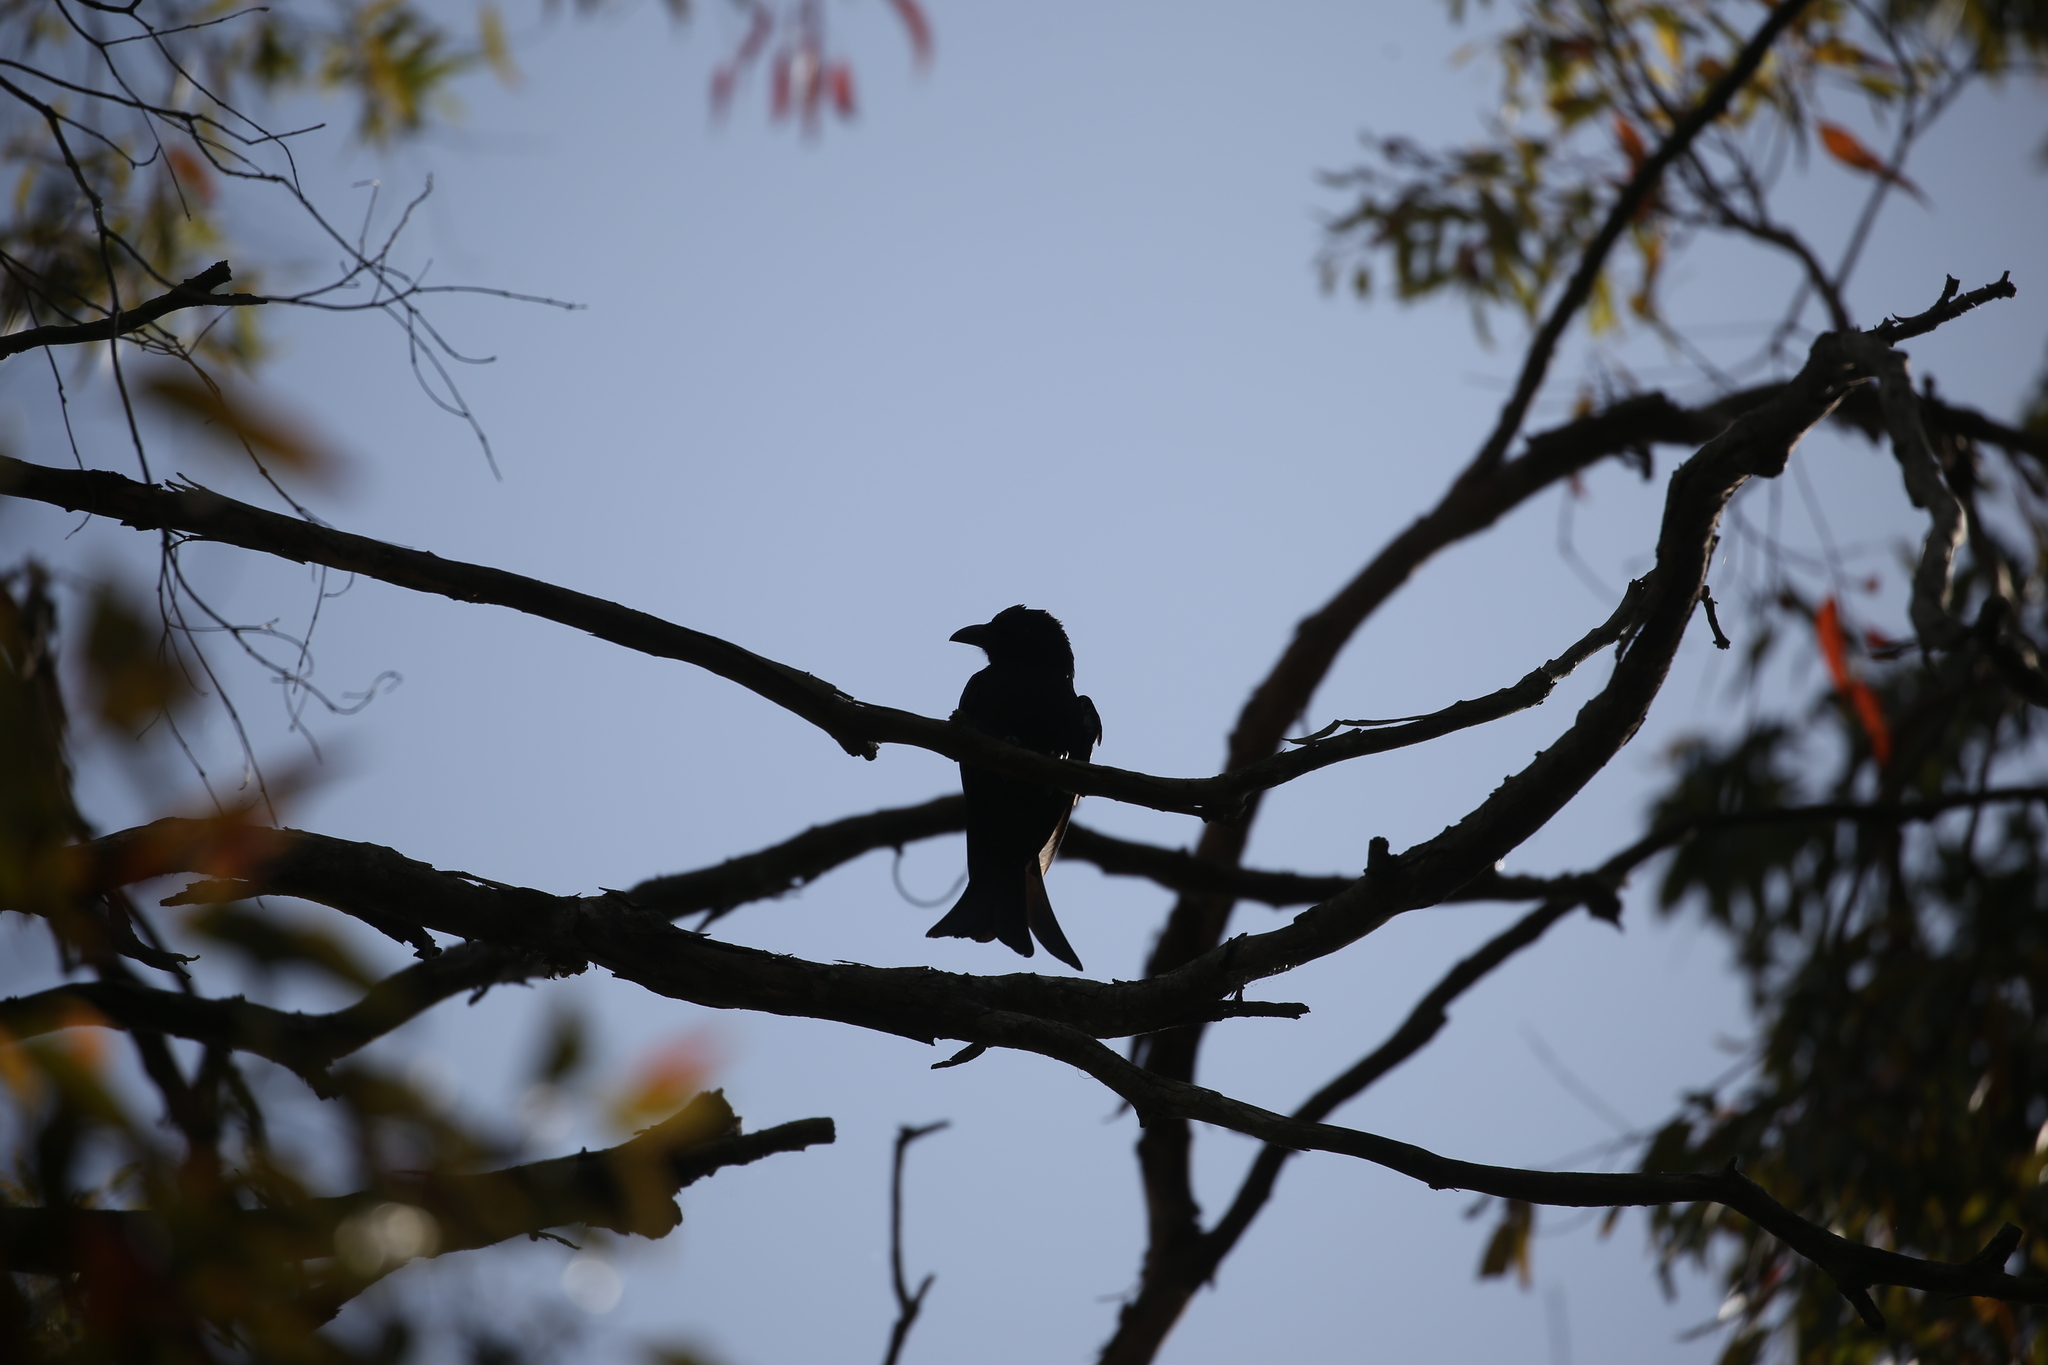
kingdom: Animalia
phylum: Chordata
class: Aves
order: Passeriformes
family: Dicruridae
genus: Dicrurus
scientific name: Dicrurus bracteatus
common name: Spangled drongo
